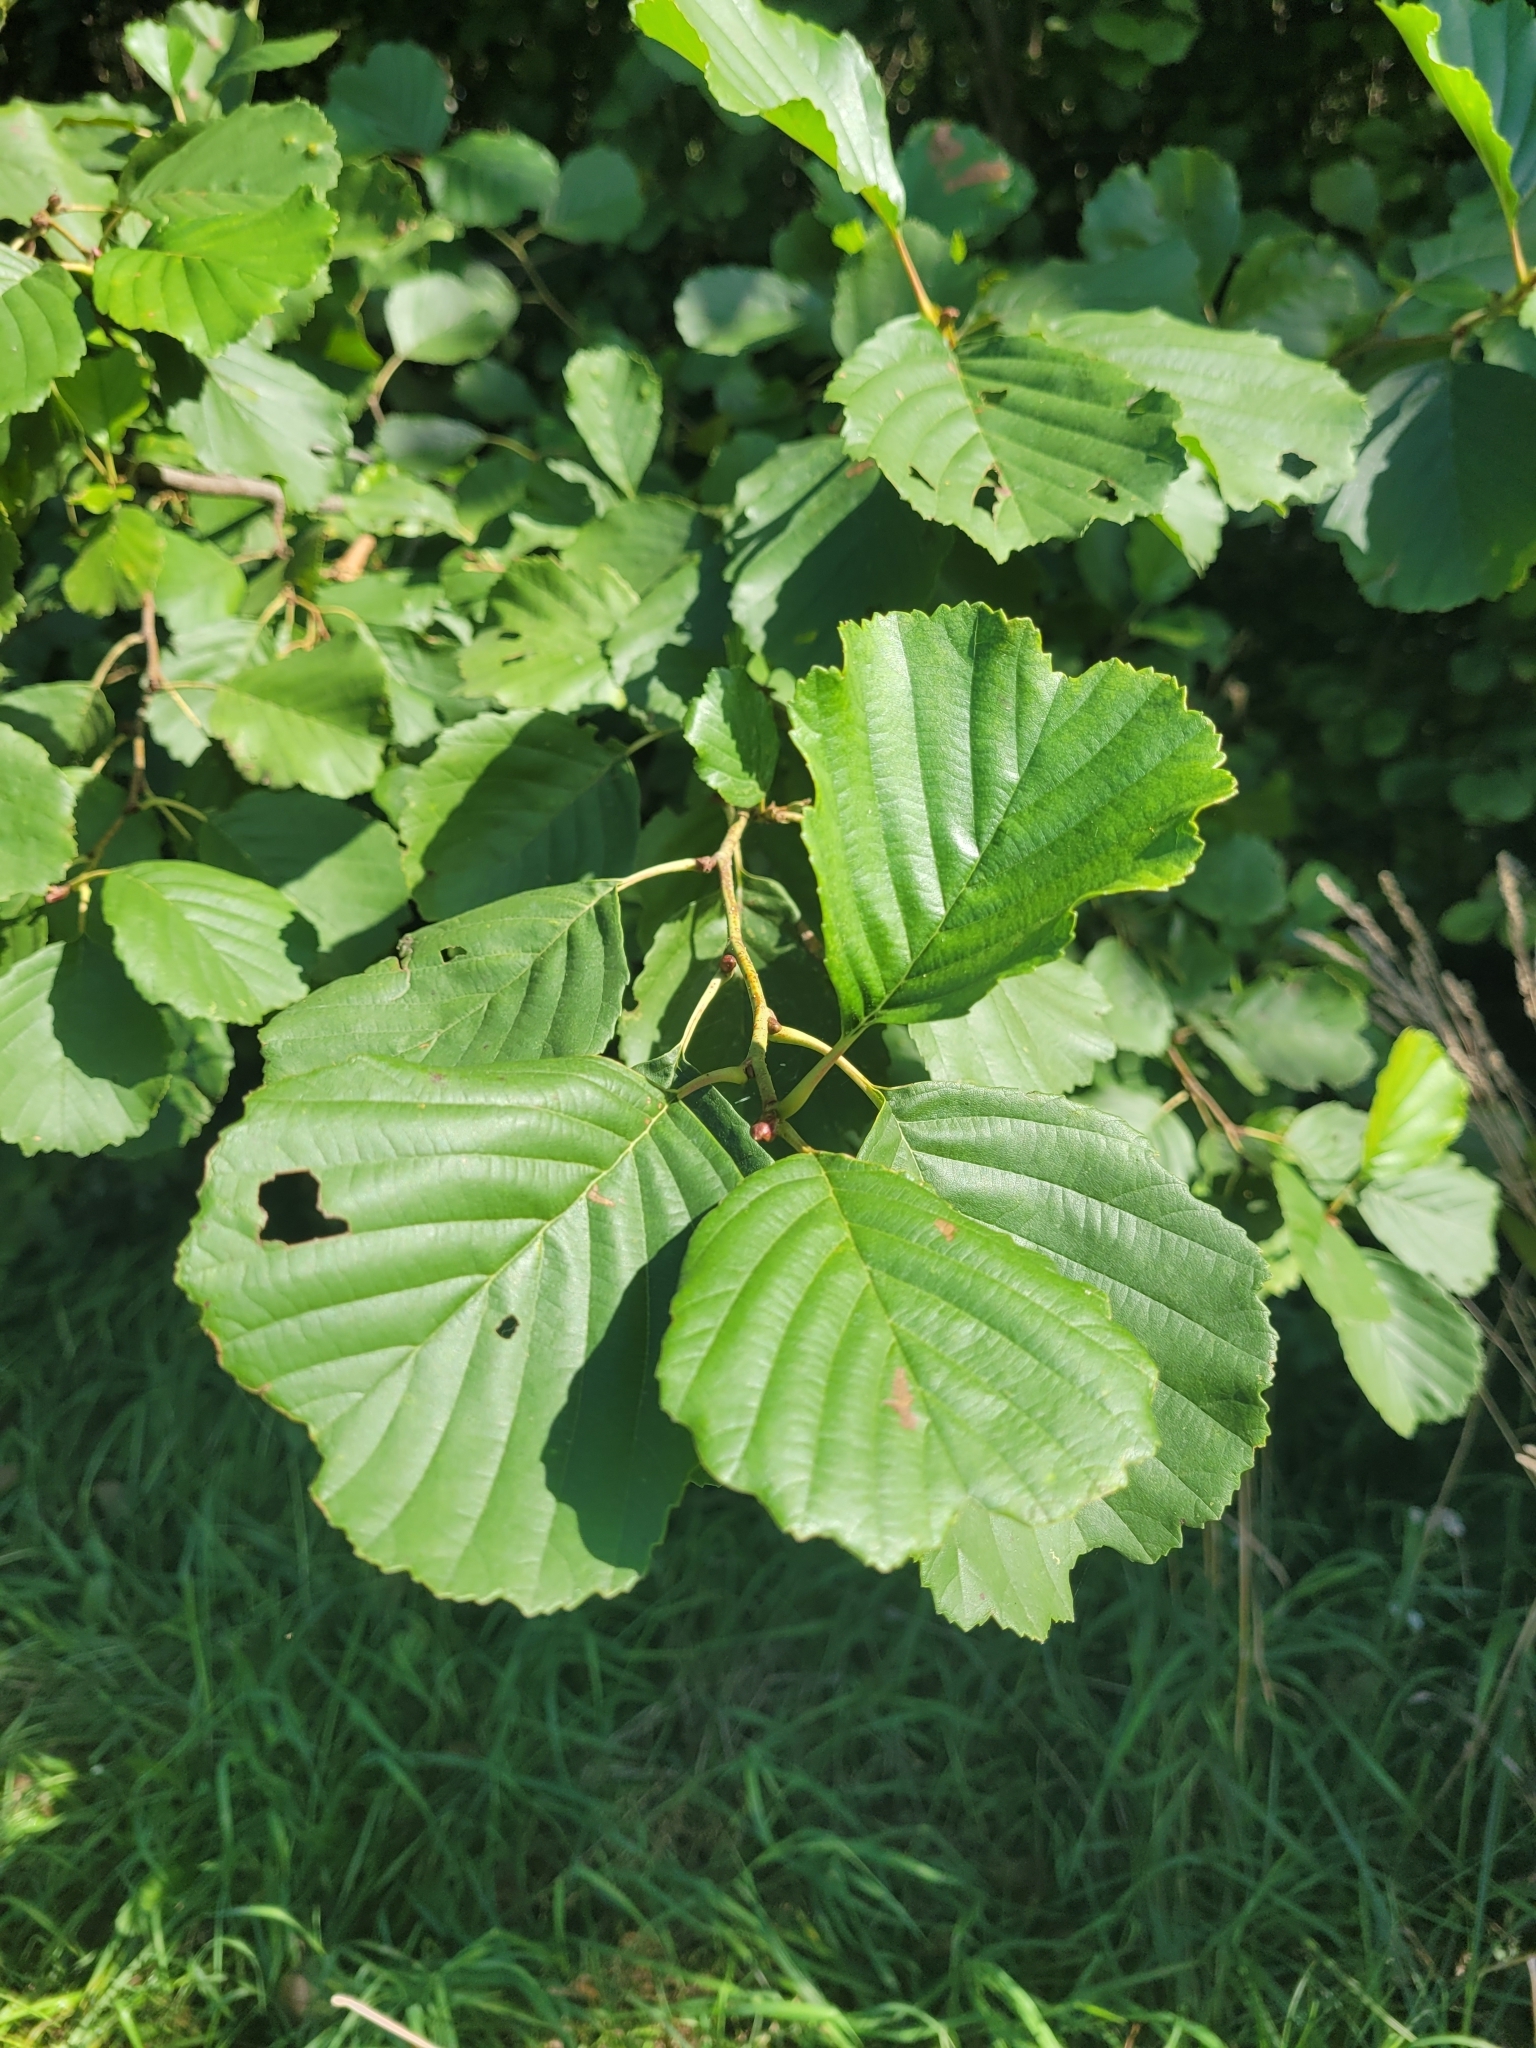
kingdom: Plantae
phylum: Tracheophyta
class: Magnoliopsida
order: Fagales
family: Betulaceae
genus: Alnus
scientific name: Alnus glutinosa
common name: Black alder
